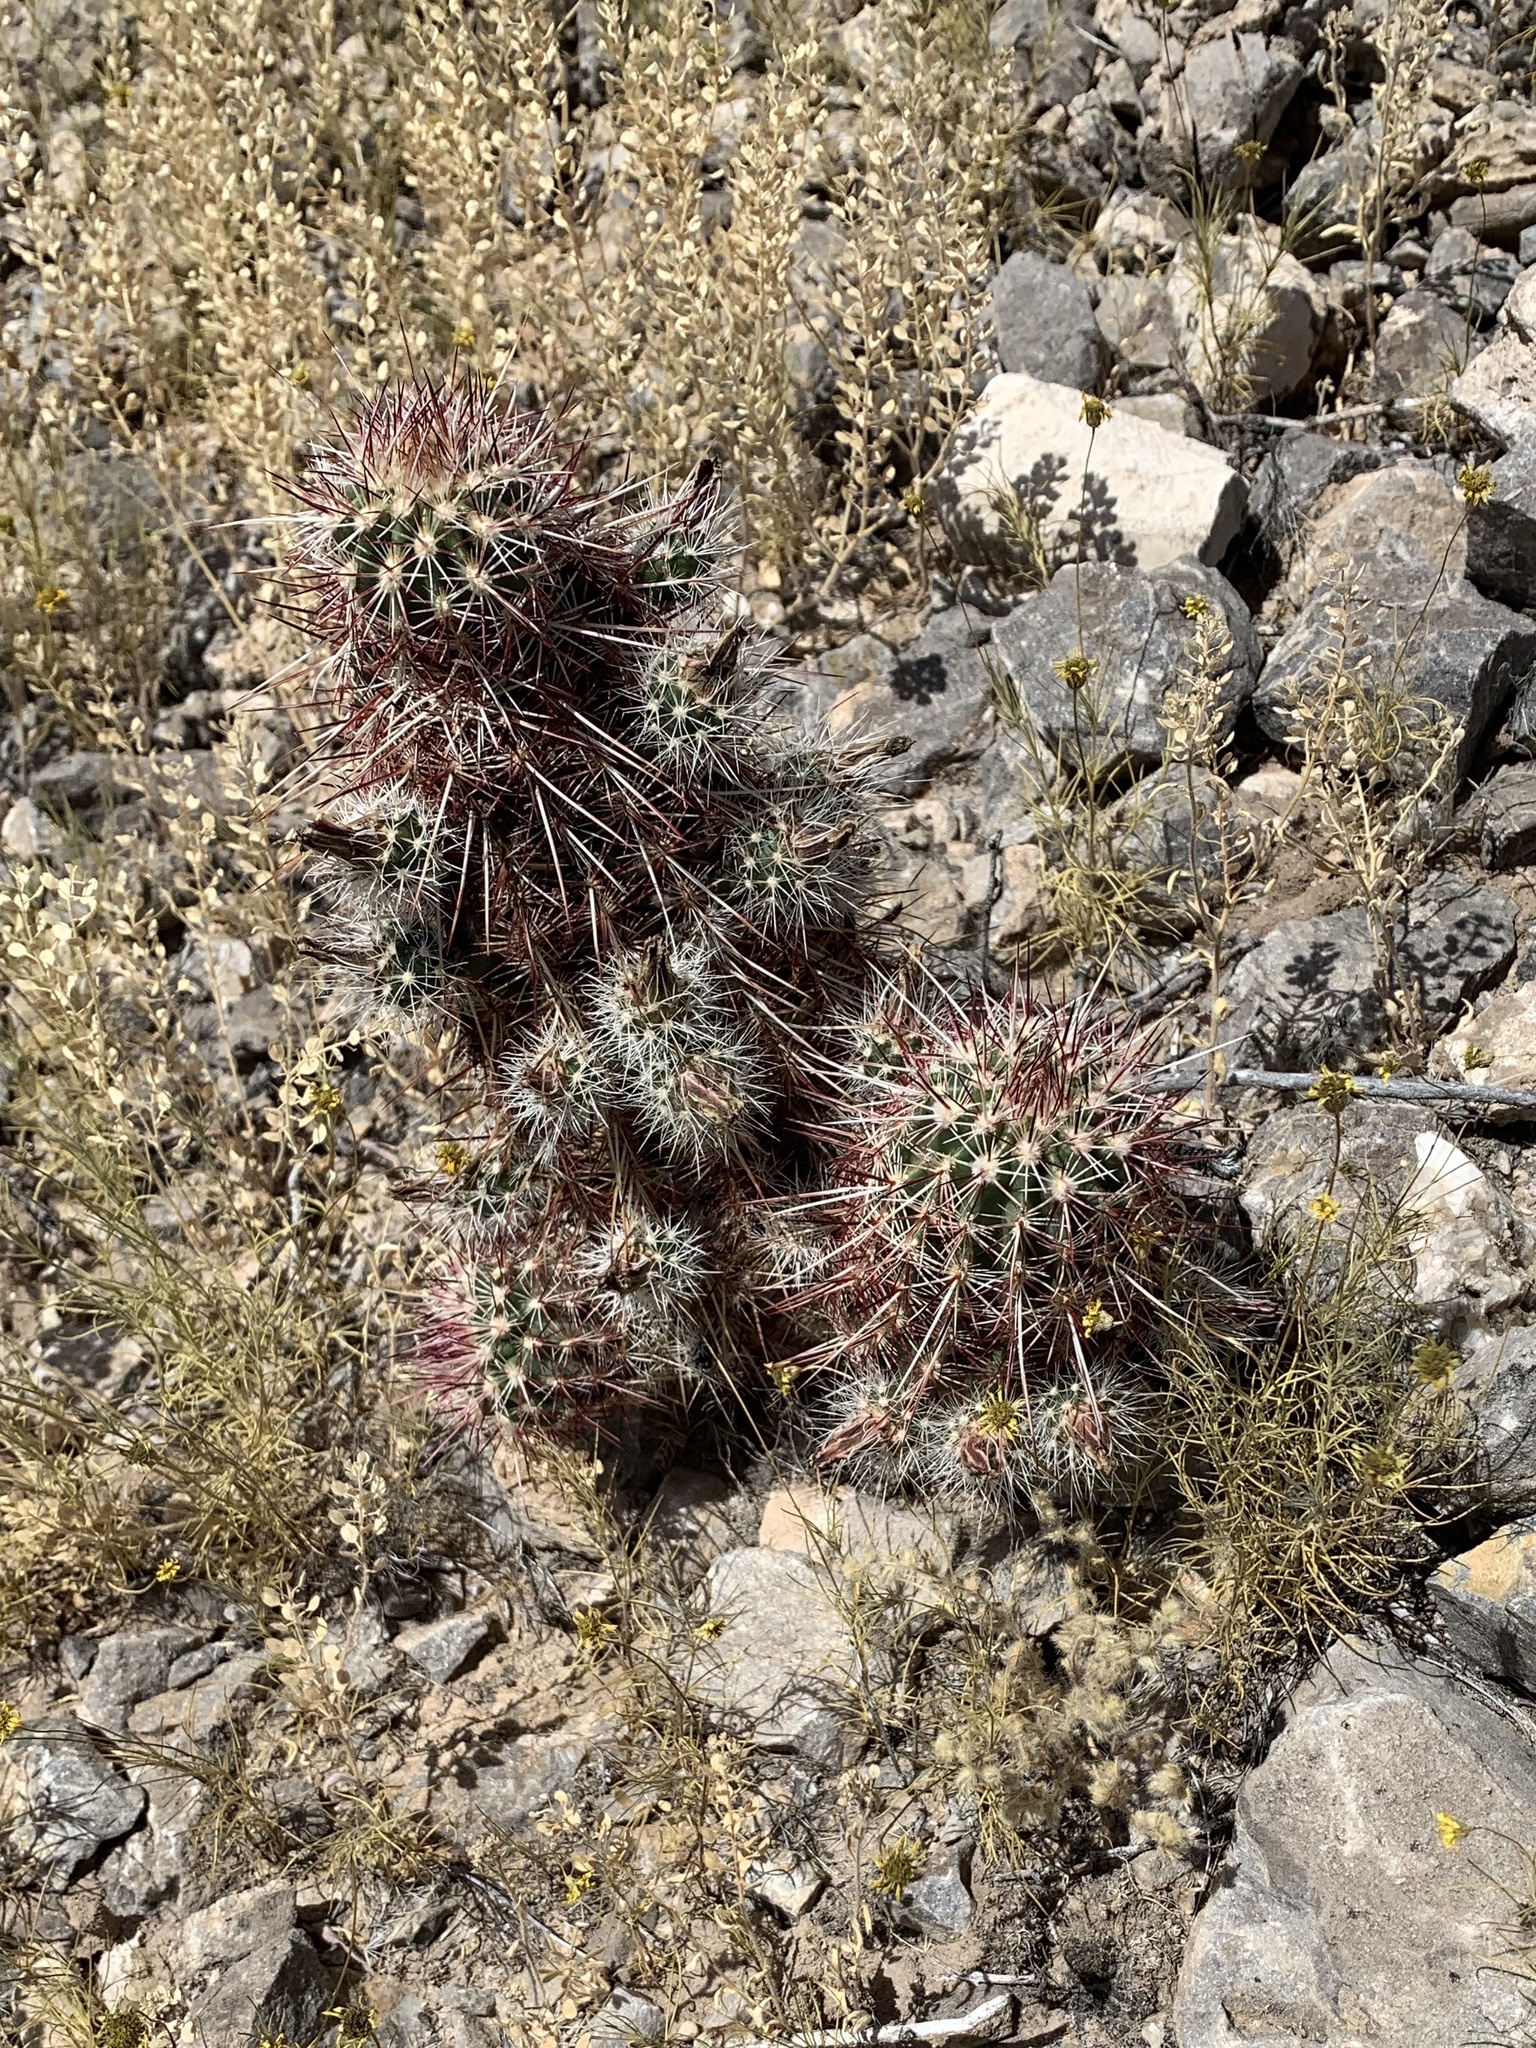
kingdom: Plantae
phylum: Tracheophyta
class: Magnoliopsida
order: Caryophyllales
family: Cactaceae
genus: Echinocereus
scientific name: Echinocereus viridiflorus
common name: Nylon hedgehog cactus
